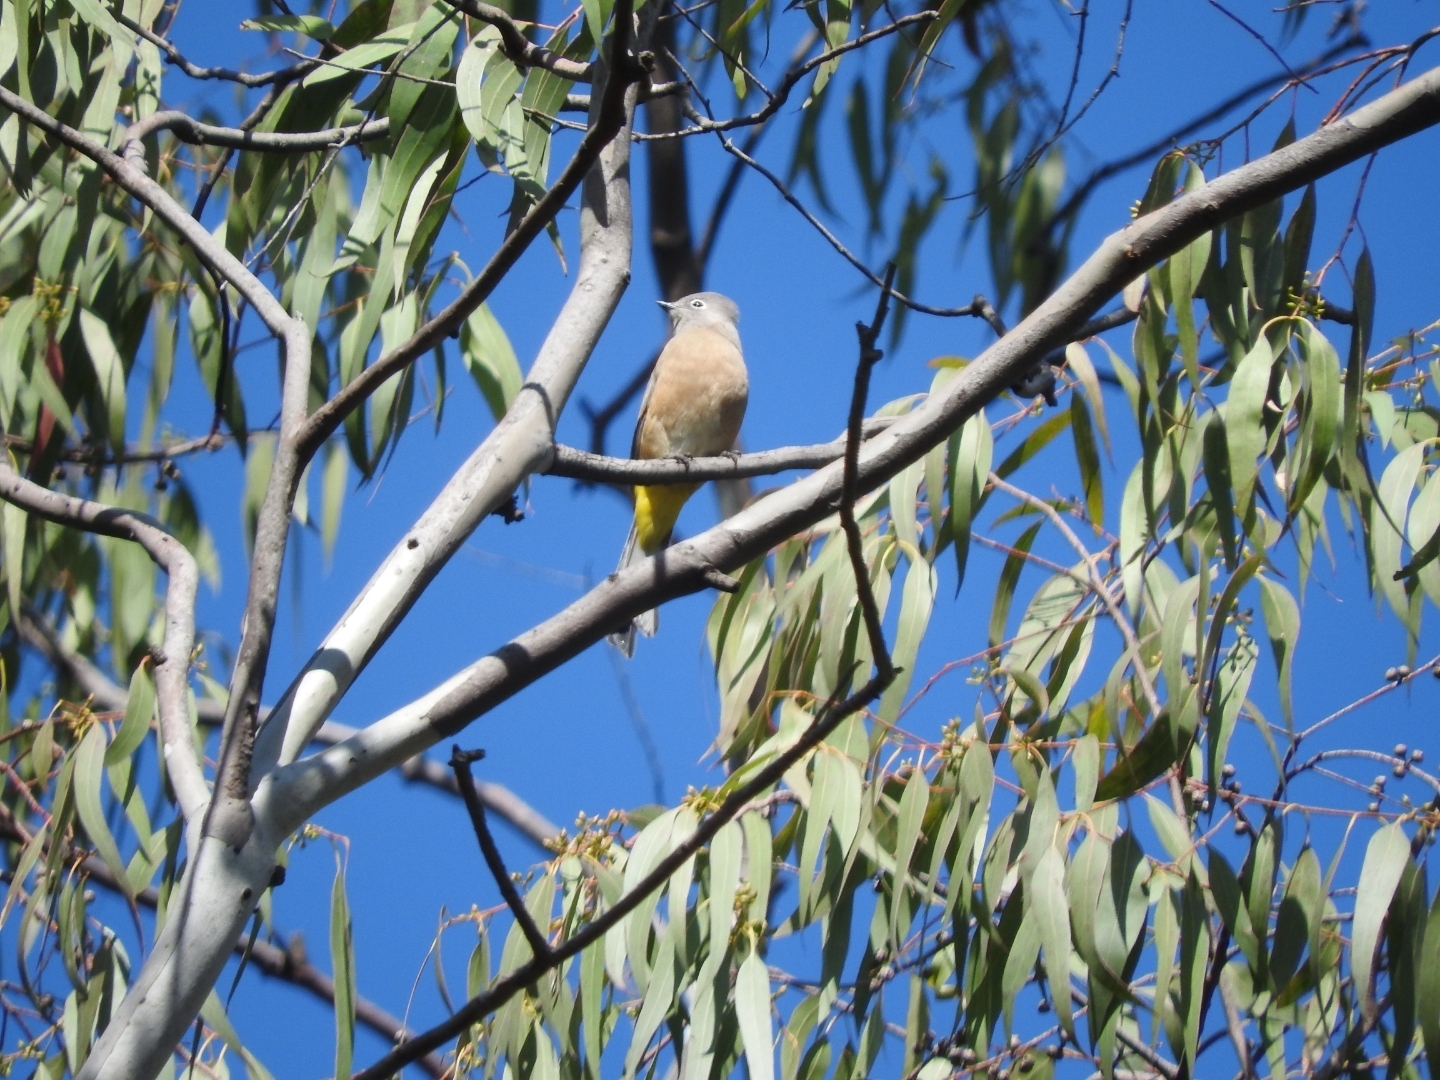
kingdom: Animalia
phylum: Chordata
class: Aves
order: Passeriformes
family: Ptilogonatidae
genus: Ptilogonys
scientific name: Ptilogonys cinereus
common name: Gray silky-flycatcher
